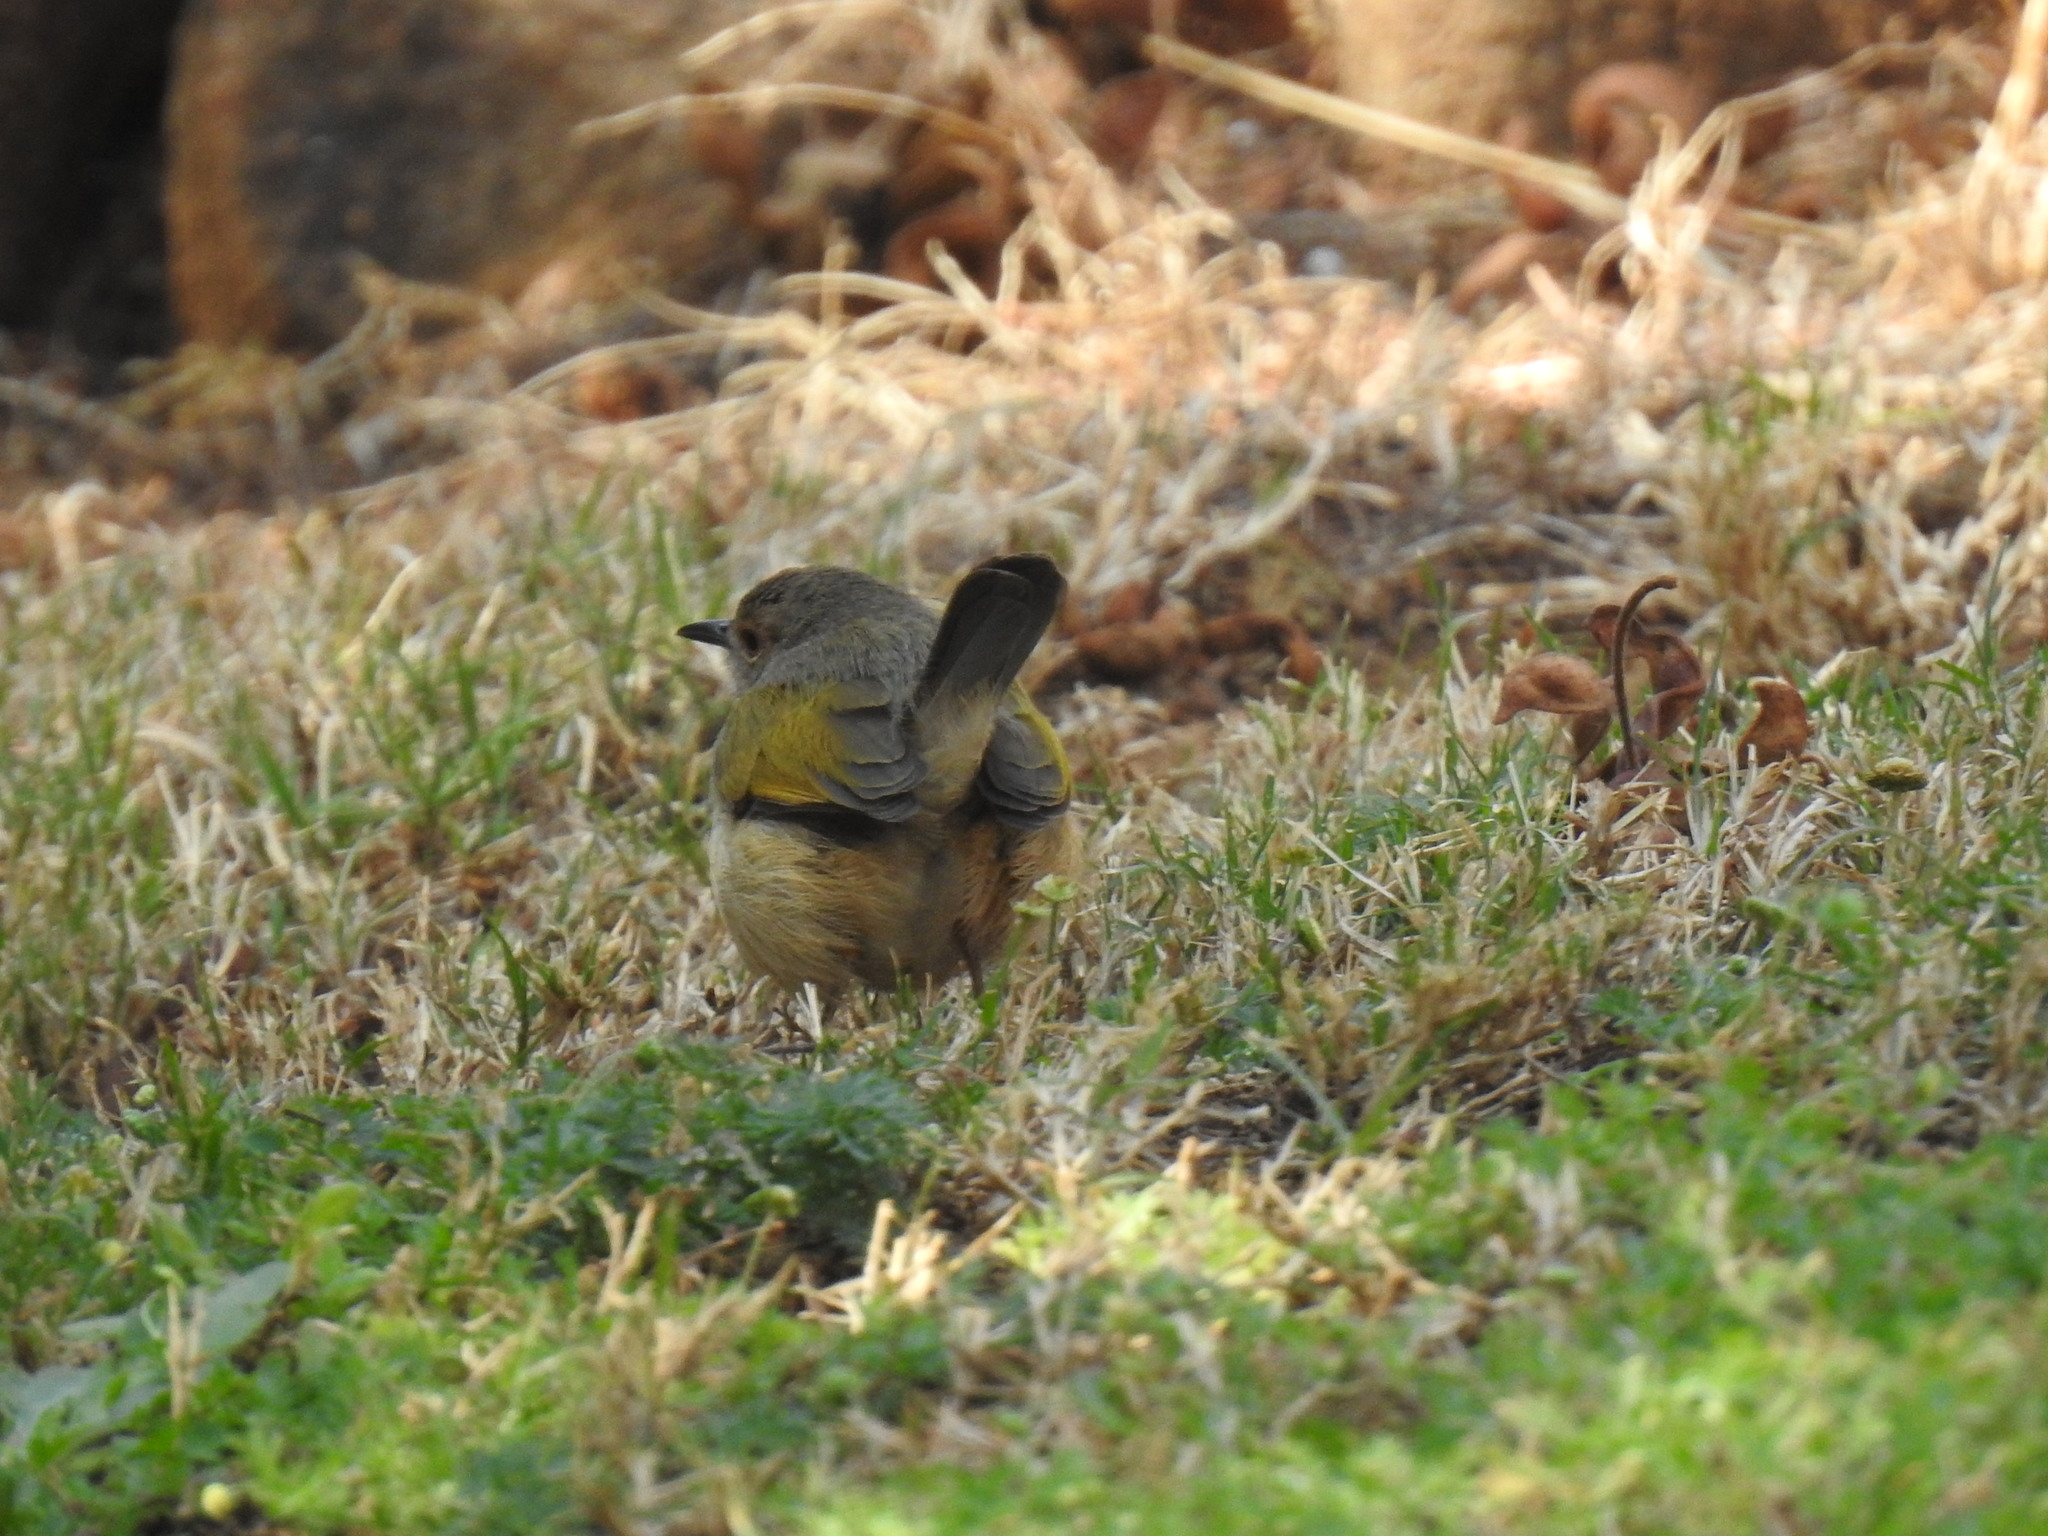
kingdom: Animalia
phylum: Chordata
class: Aves
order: Passeriformes
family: Cisticolidae
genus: Camaroptera
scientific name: Camaroptera brachyura
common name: Green-backed camaroptera
